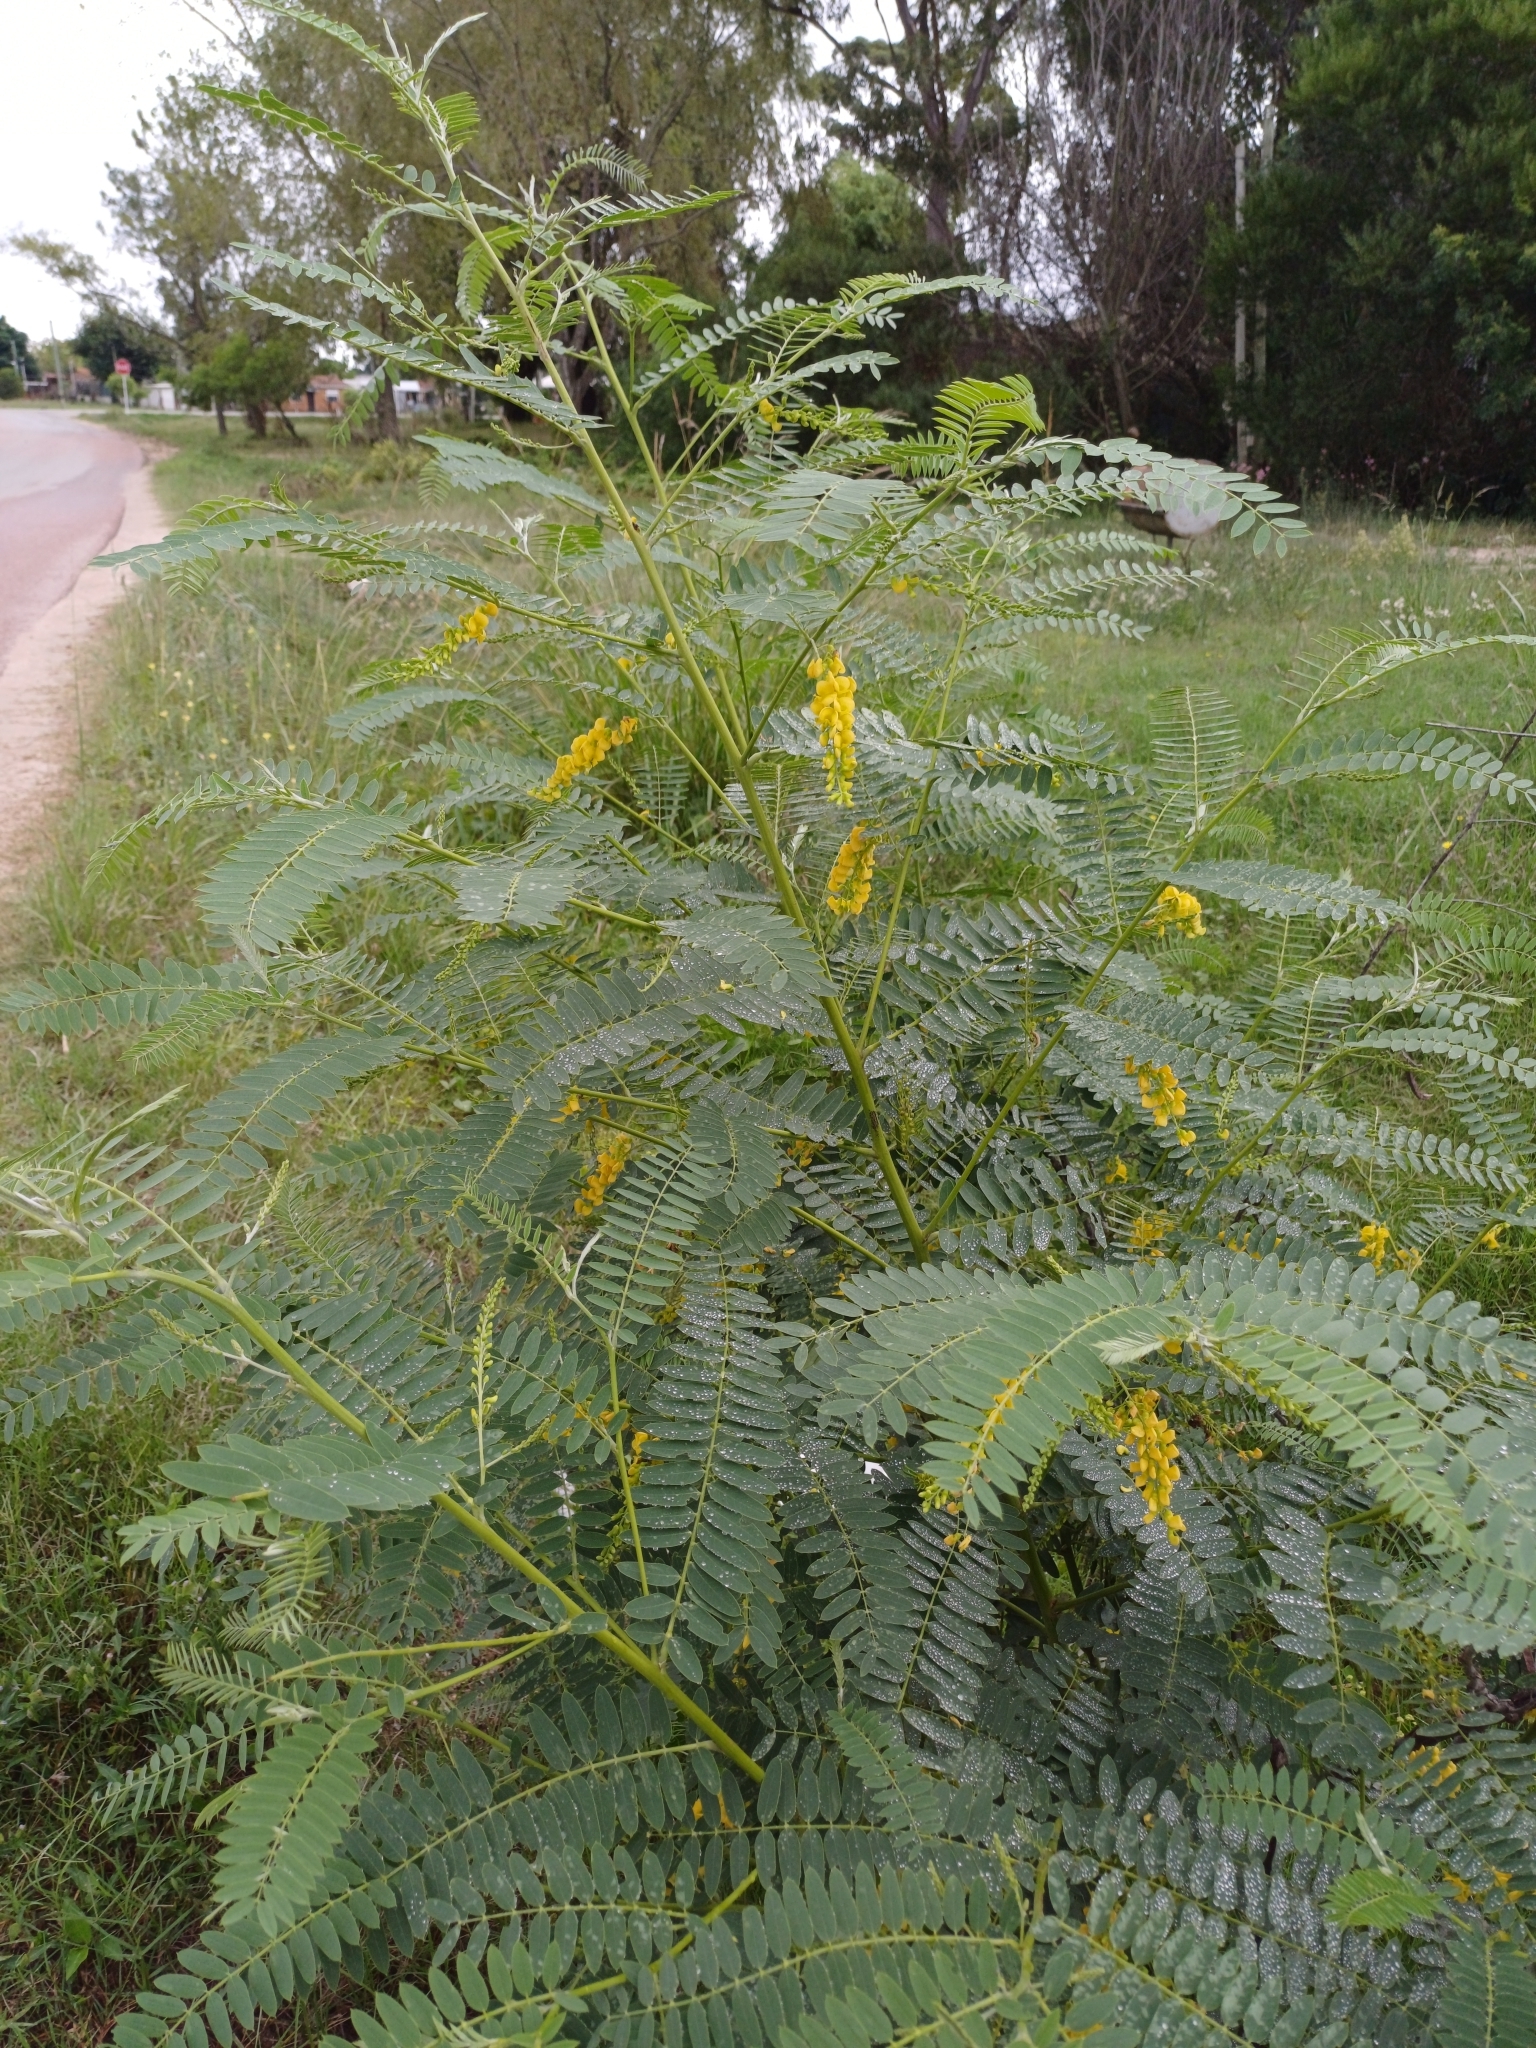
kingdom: Plantae
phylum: Tracheophyta
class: Magnoliopsida
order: Fabales
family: Fabaceae
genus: Sesbania
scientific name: Sesbania virgata
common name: Wand riverhemp
